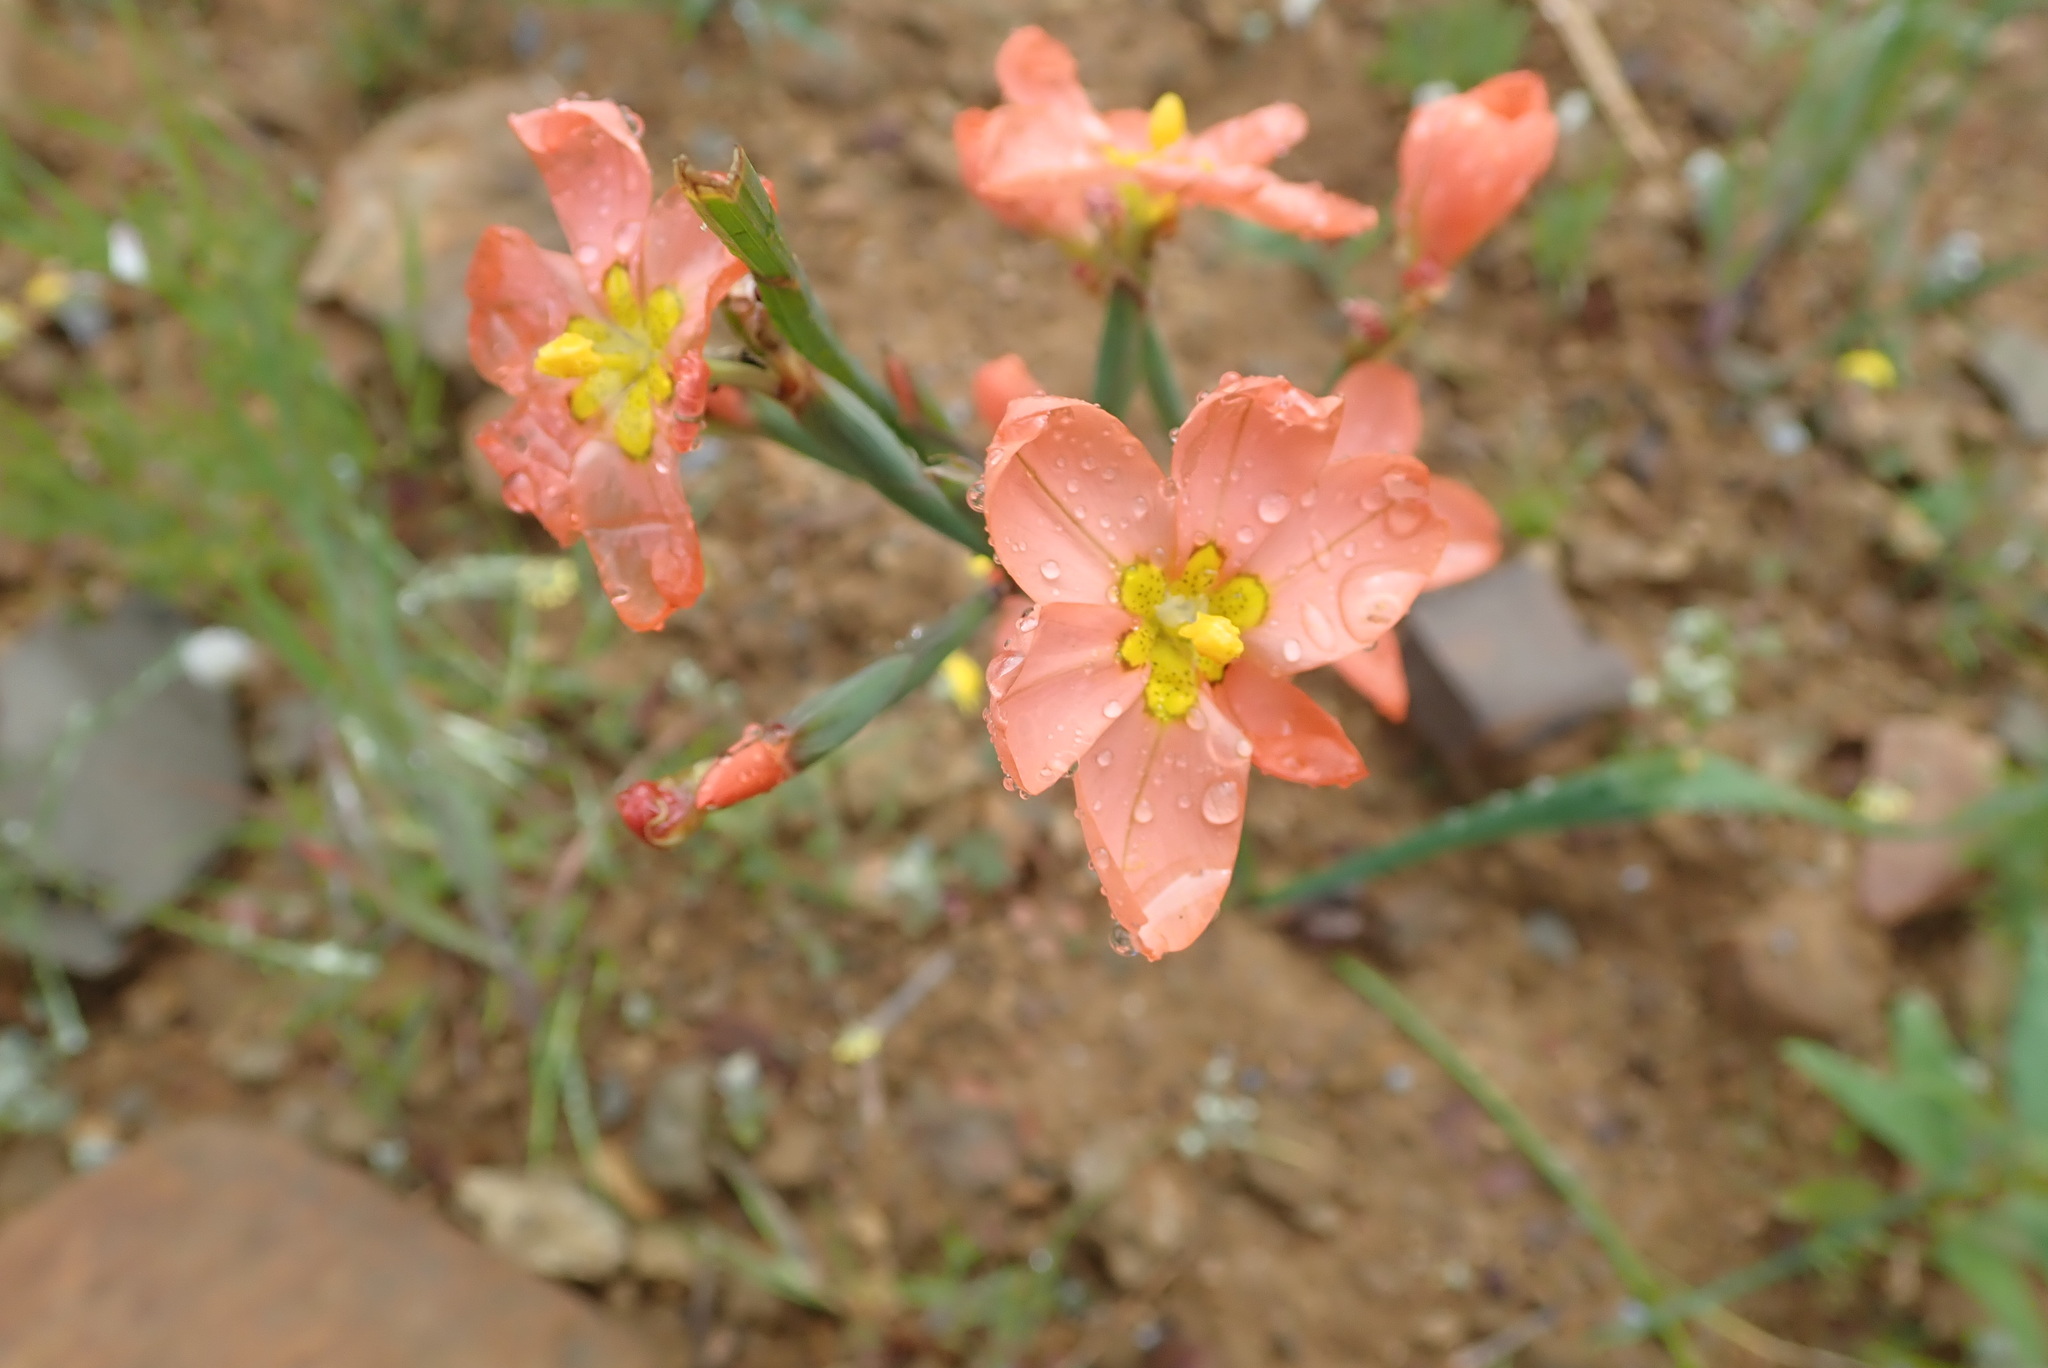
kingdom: Plantae
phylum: Tracheophyta
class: Liliopsida
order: Asparagales
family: Iridaceae
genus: Moraea
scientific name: Moraea miniata
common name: Two-leaf cape-tulip
